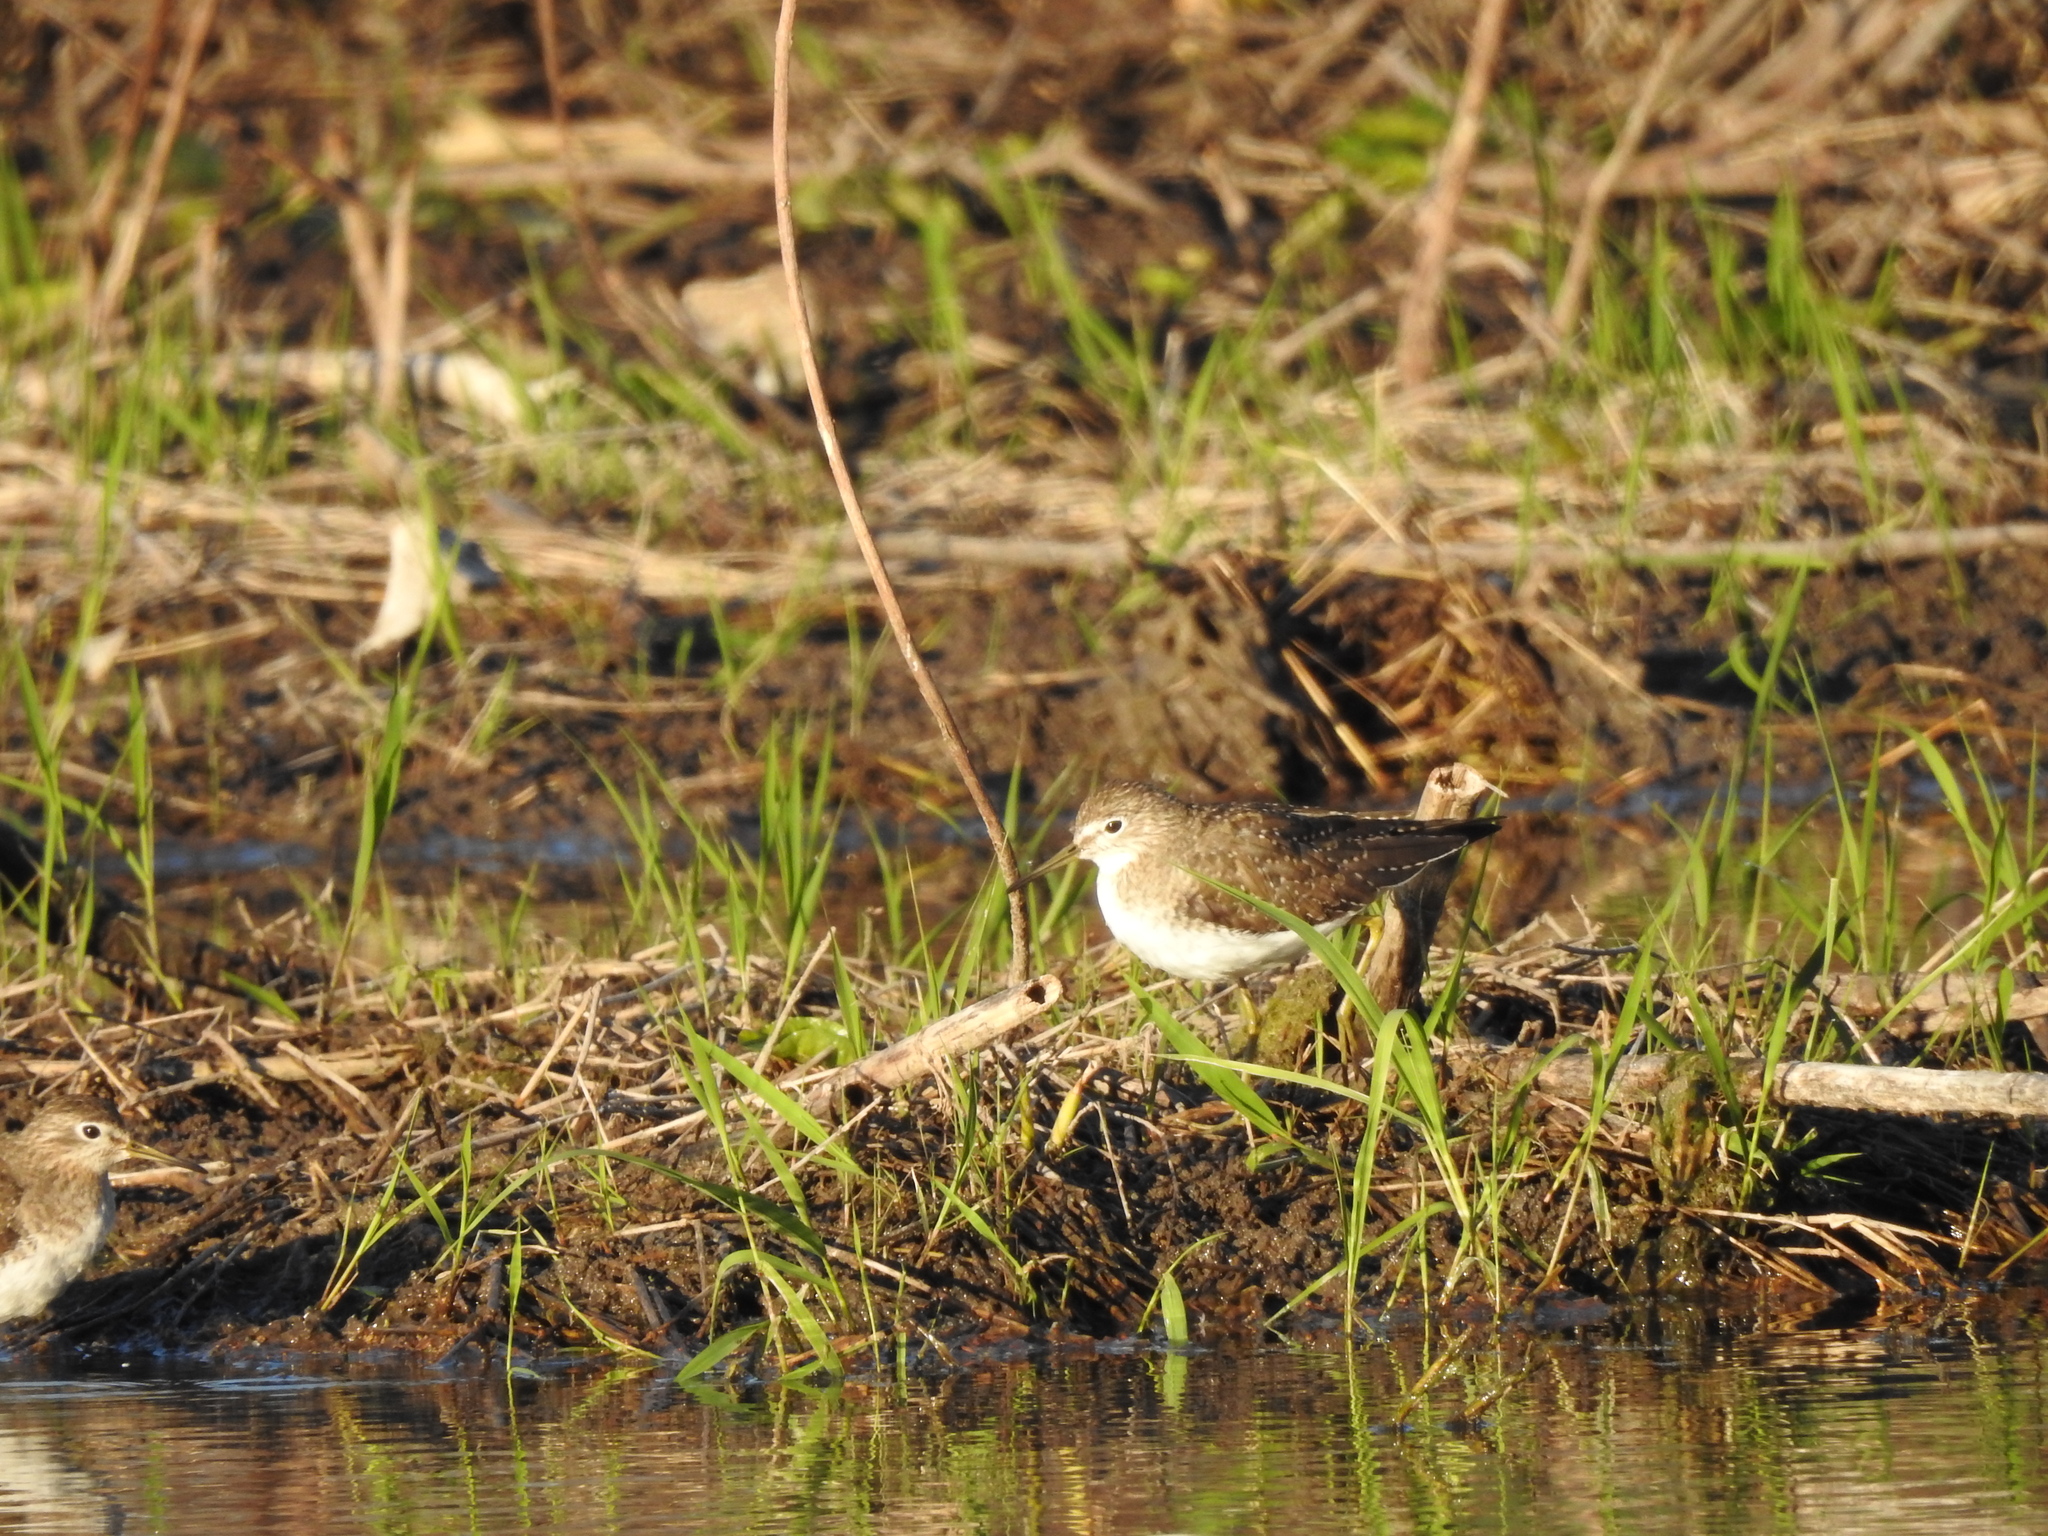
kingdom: Animalia
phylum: Chordata
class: Aves
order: Charadriiformes
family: Scolopacidae
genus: Tringa
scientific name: Tringa solitaria
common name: Solitary sandpiper
